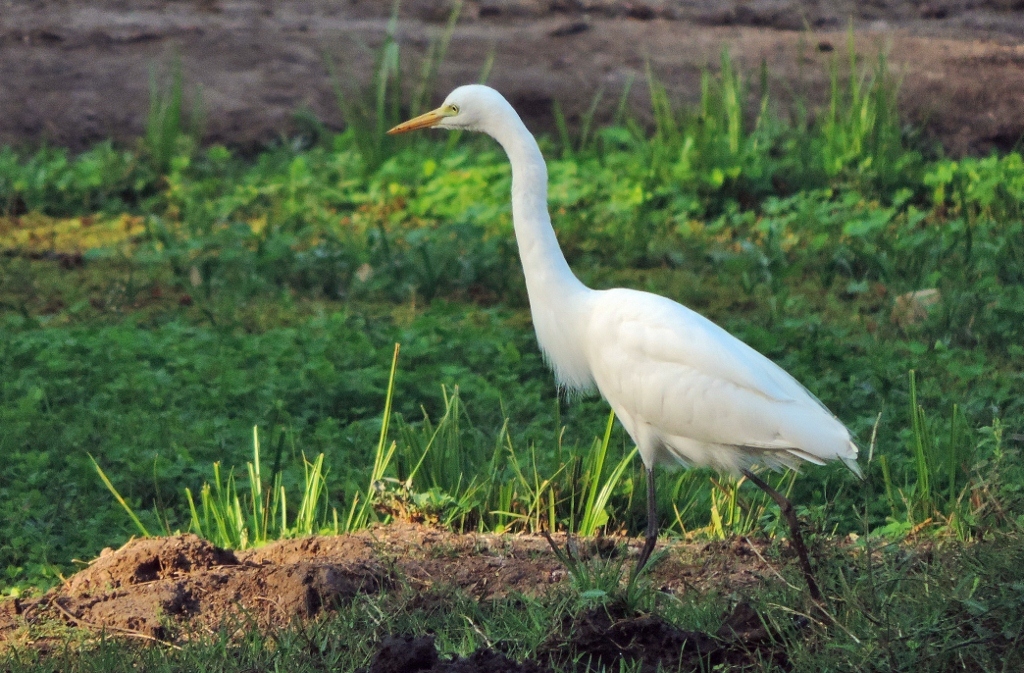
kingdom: Animalia
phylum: Chordata
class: Aves
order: Pelecaniformes
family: Ardeidae
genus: Egretta
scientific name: Egretta intermedia
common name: Intermediate egret
